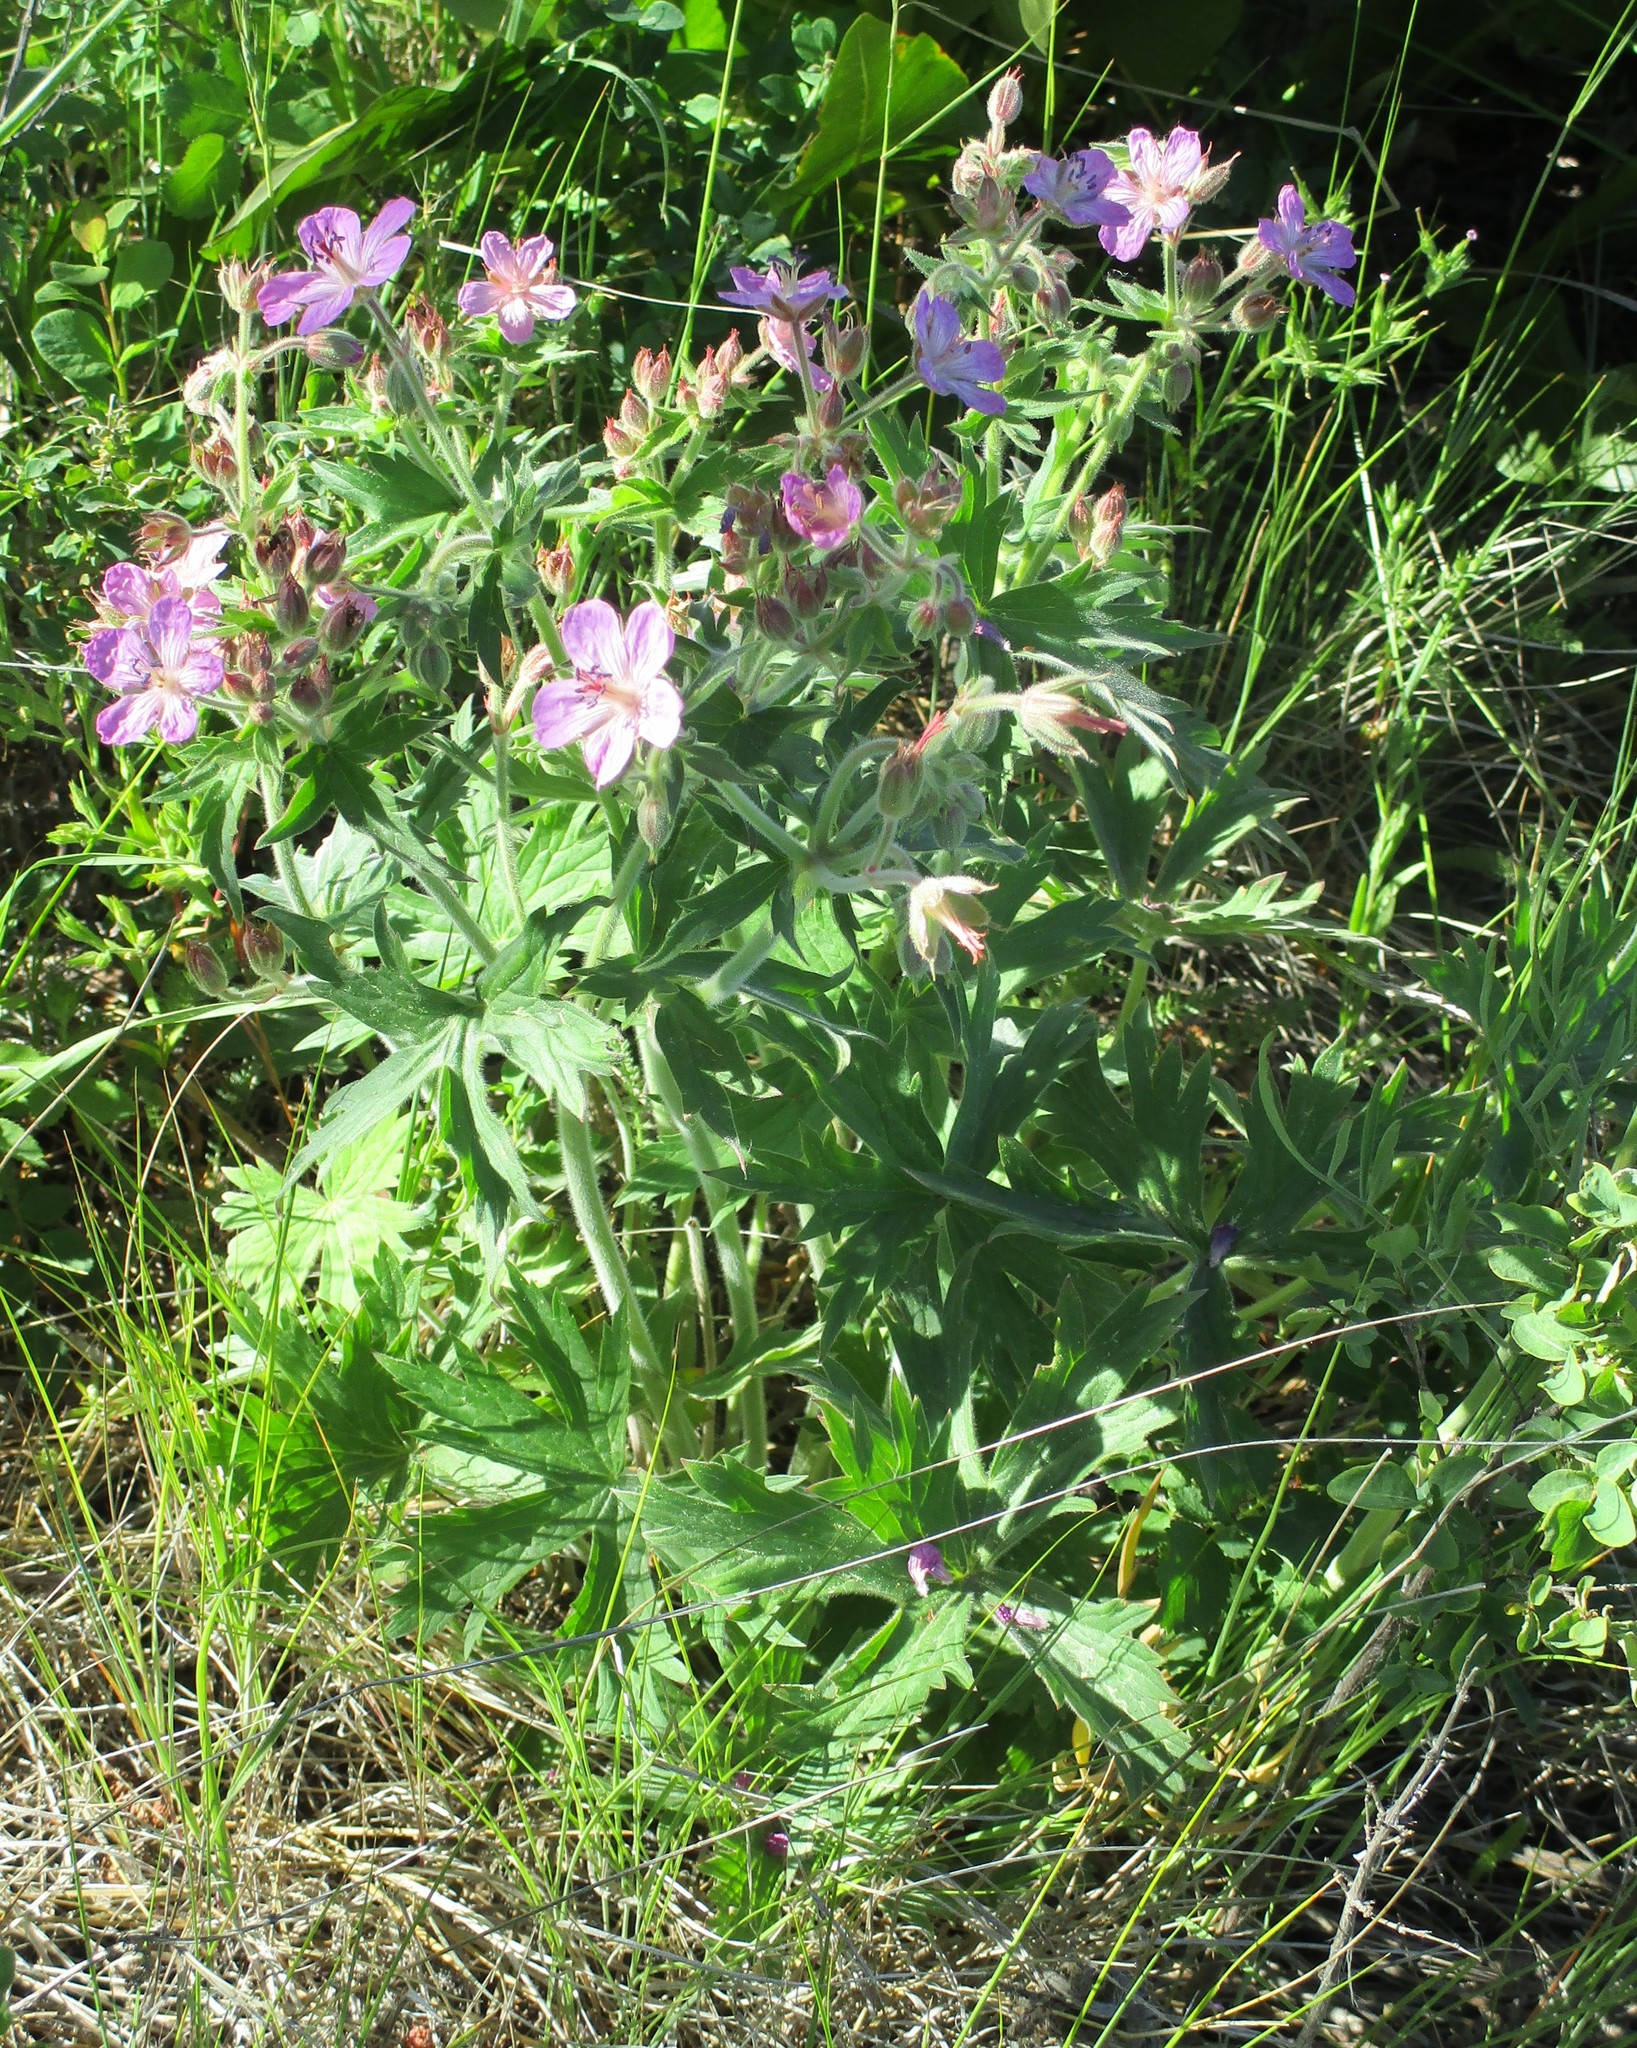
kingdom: Plantae
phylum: Tracheophyta
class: Magnoliopsida
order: Geraniales
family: Geraniaceae
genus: Geranium
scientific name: Geranium viscosissimum
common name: Purple geranium
